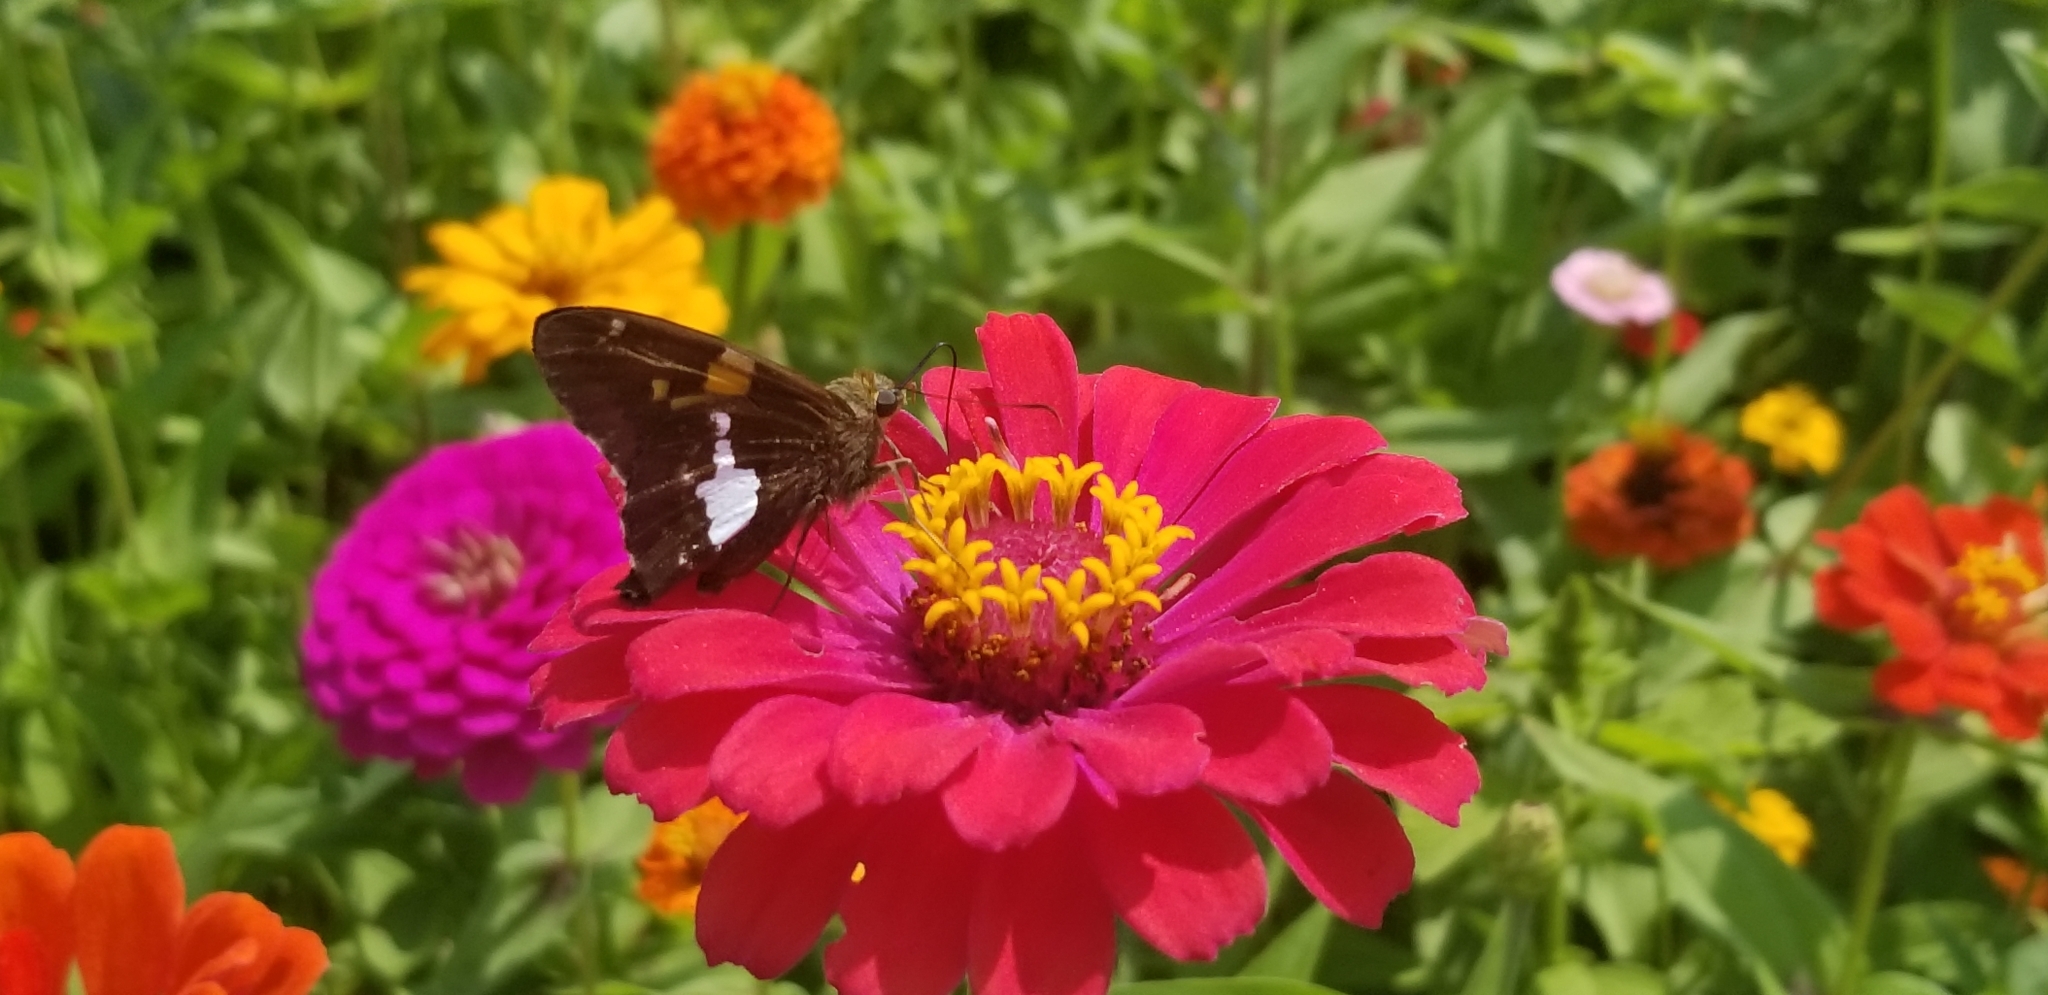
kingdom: Animalia
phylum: Arthropoda
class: Insecta
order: Lepidoptera
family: Hesperiidae
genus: Epargyreus
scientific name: Epargyreus clarus
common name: Silver-spotted skipper
